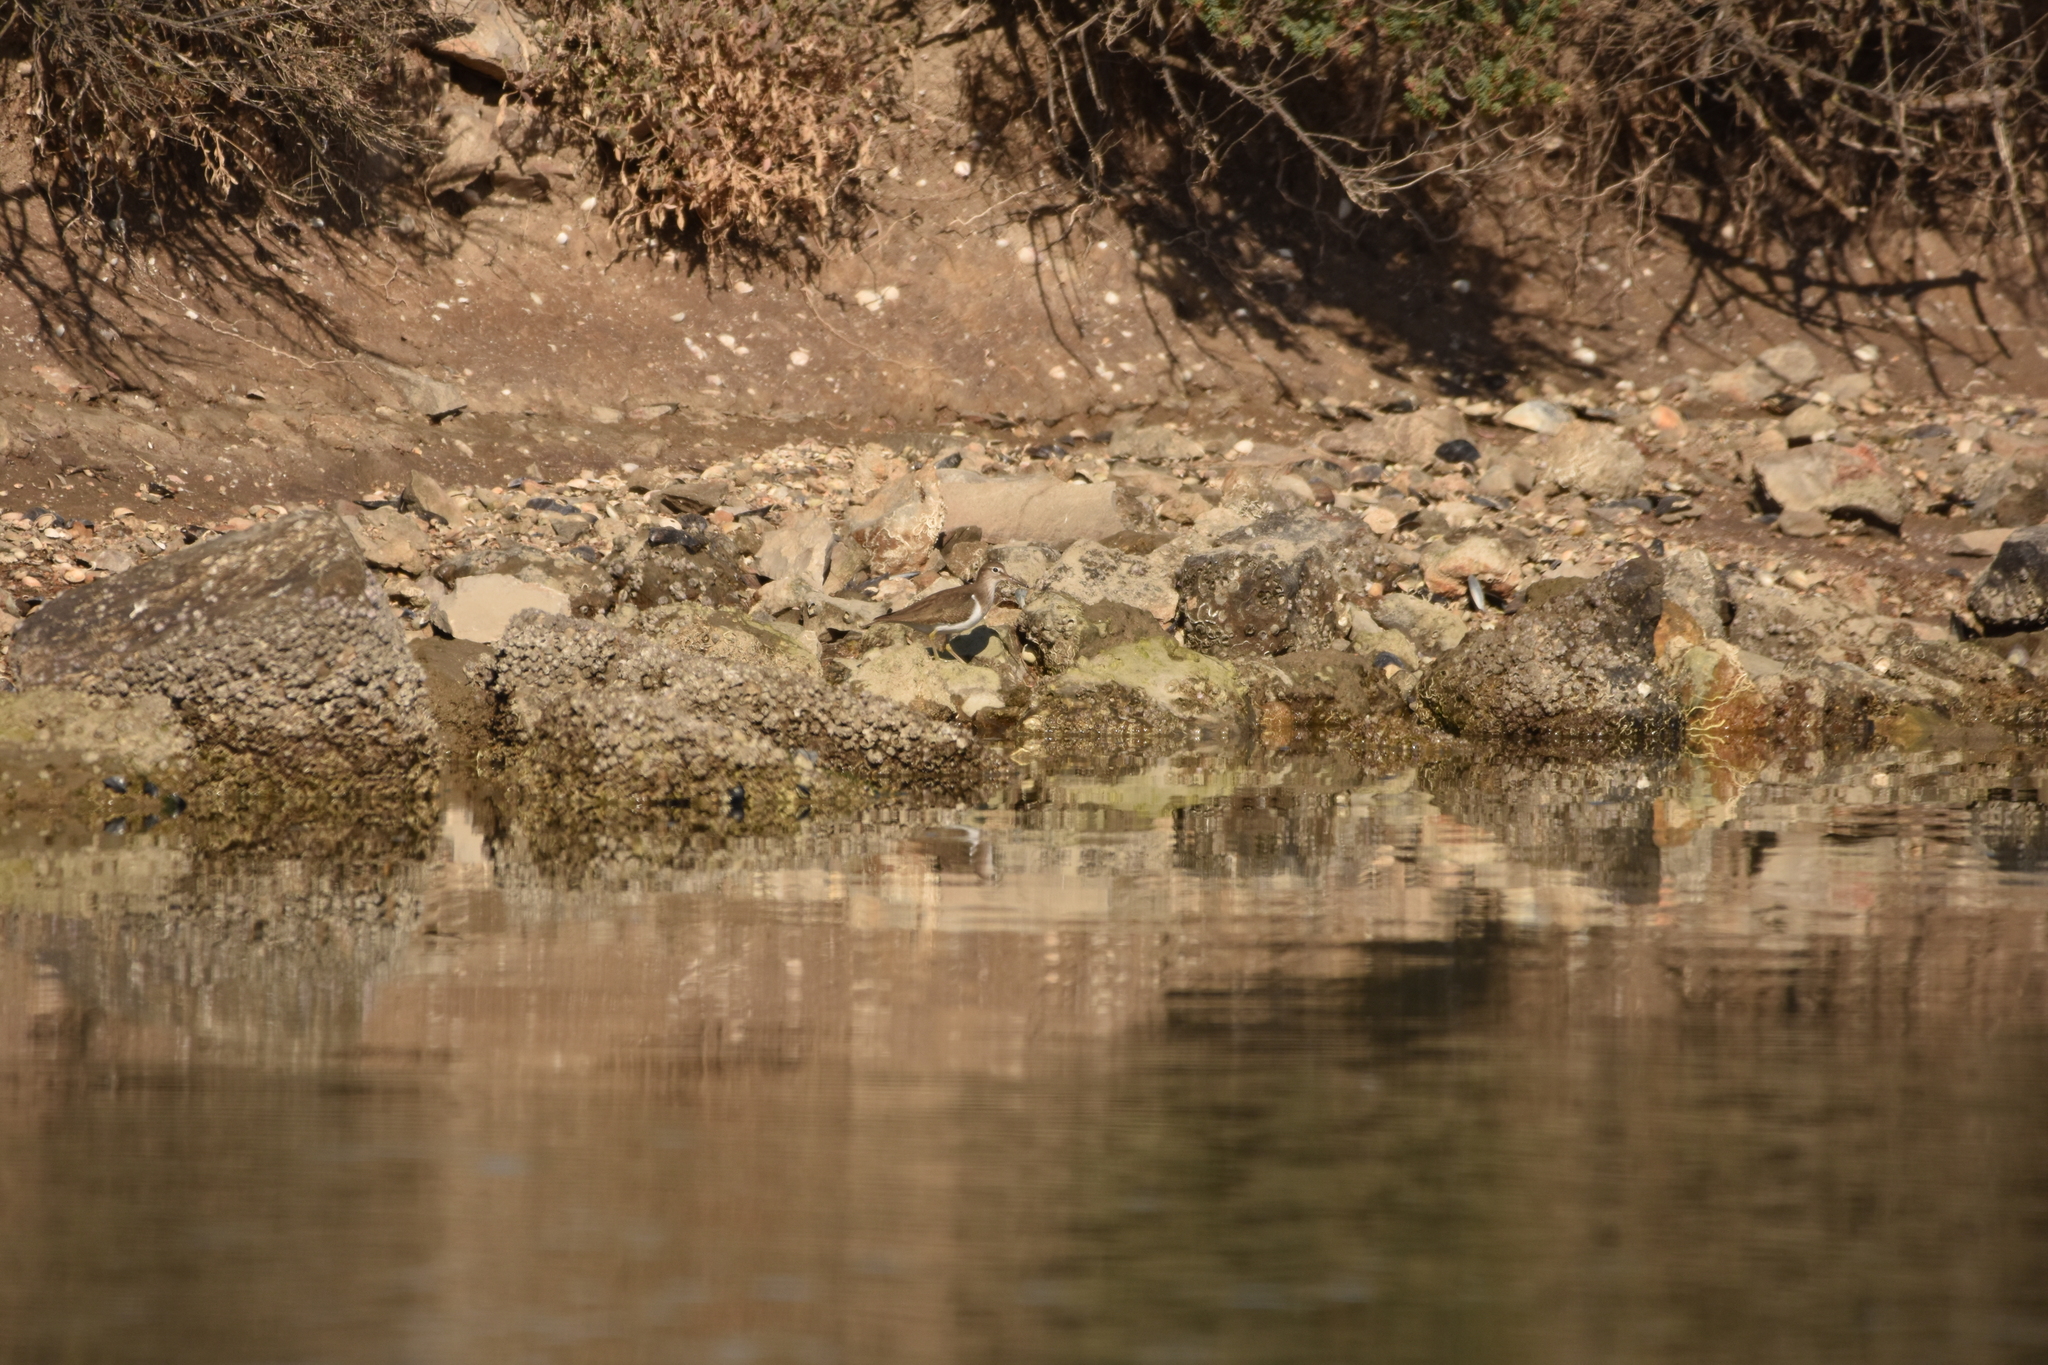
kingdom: Animalia
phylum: Chordata
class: Aves
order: Charadriiformes
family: Scolopacidae
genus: Actitis
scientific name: Actitis hypoleucos
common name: Common sandpiper
